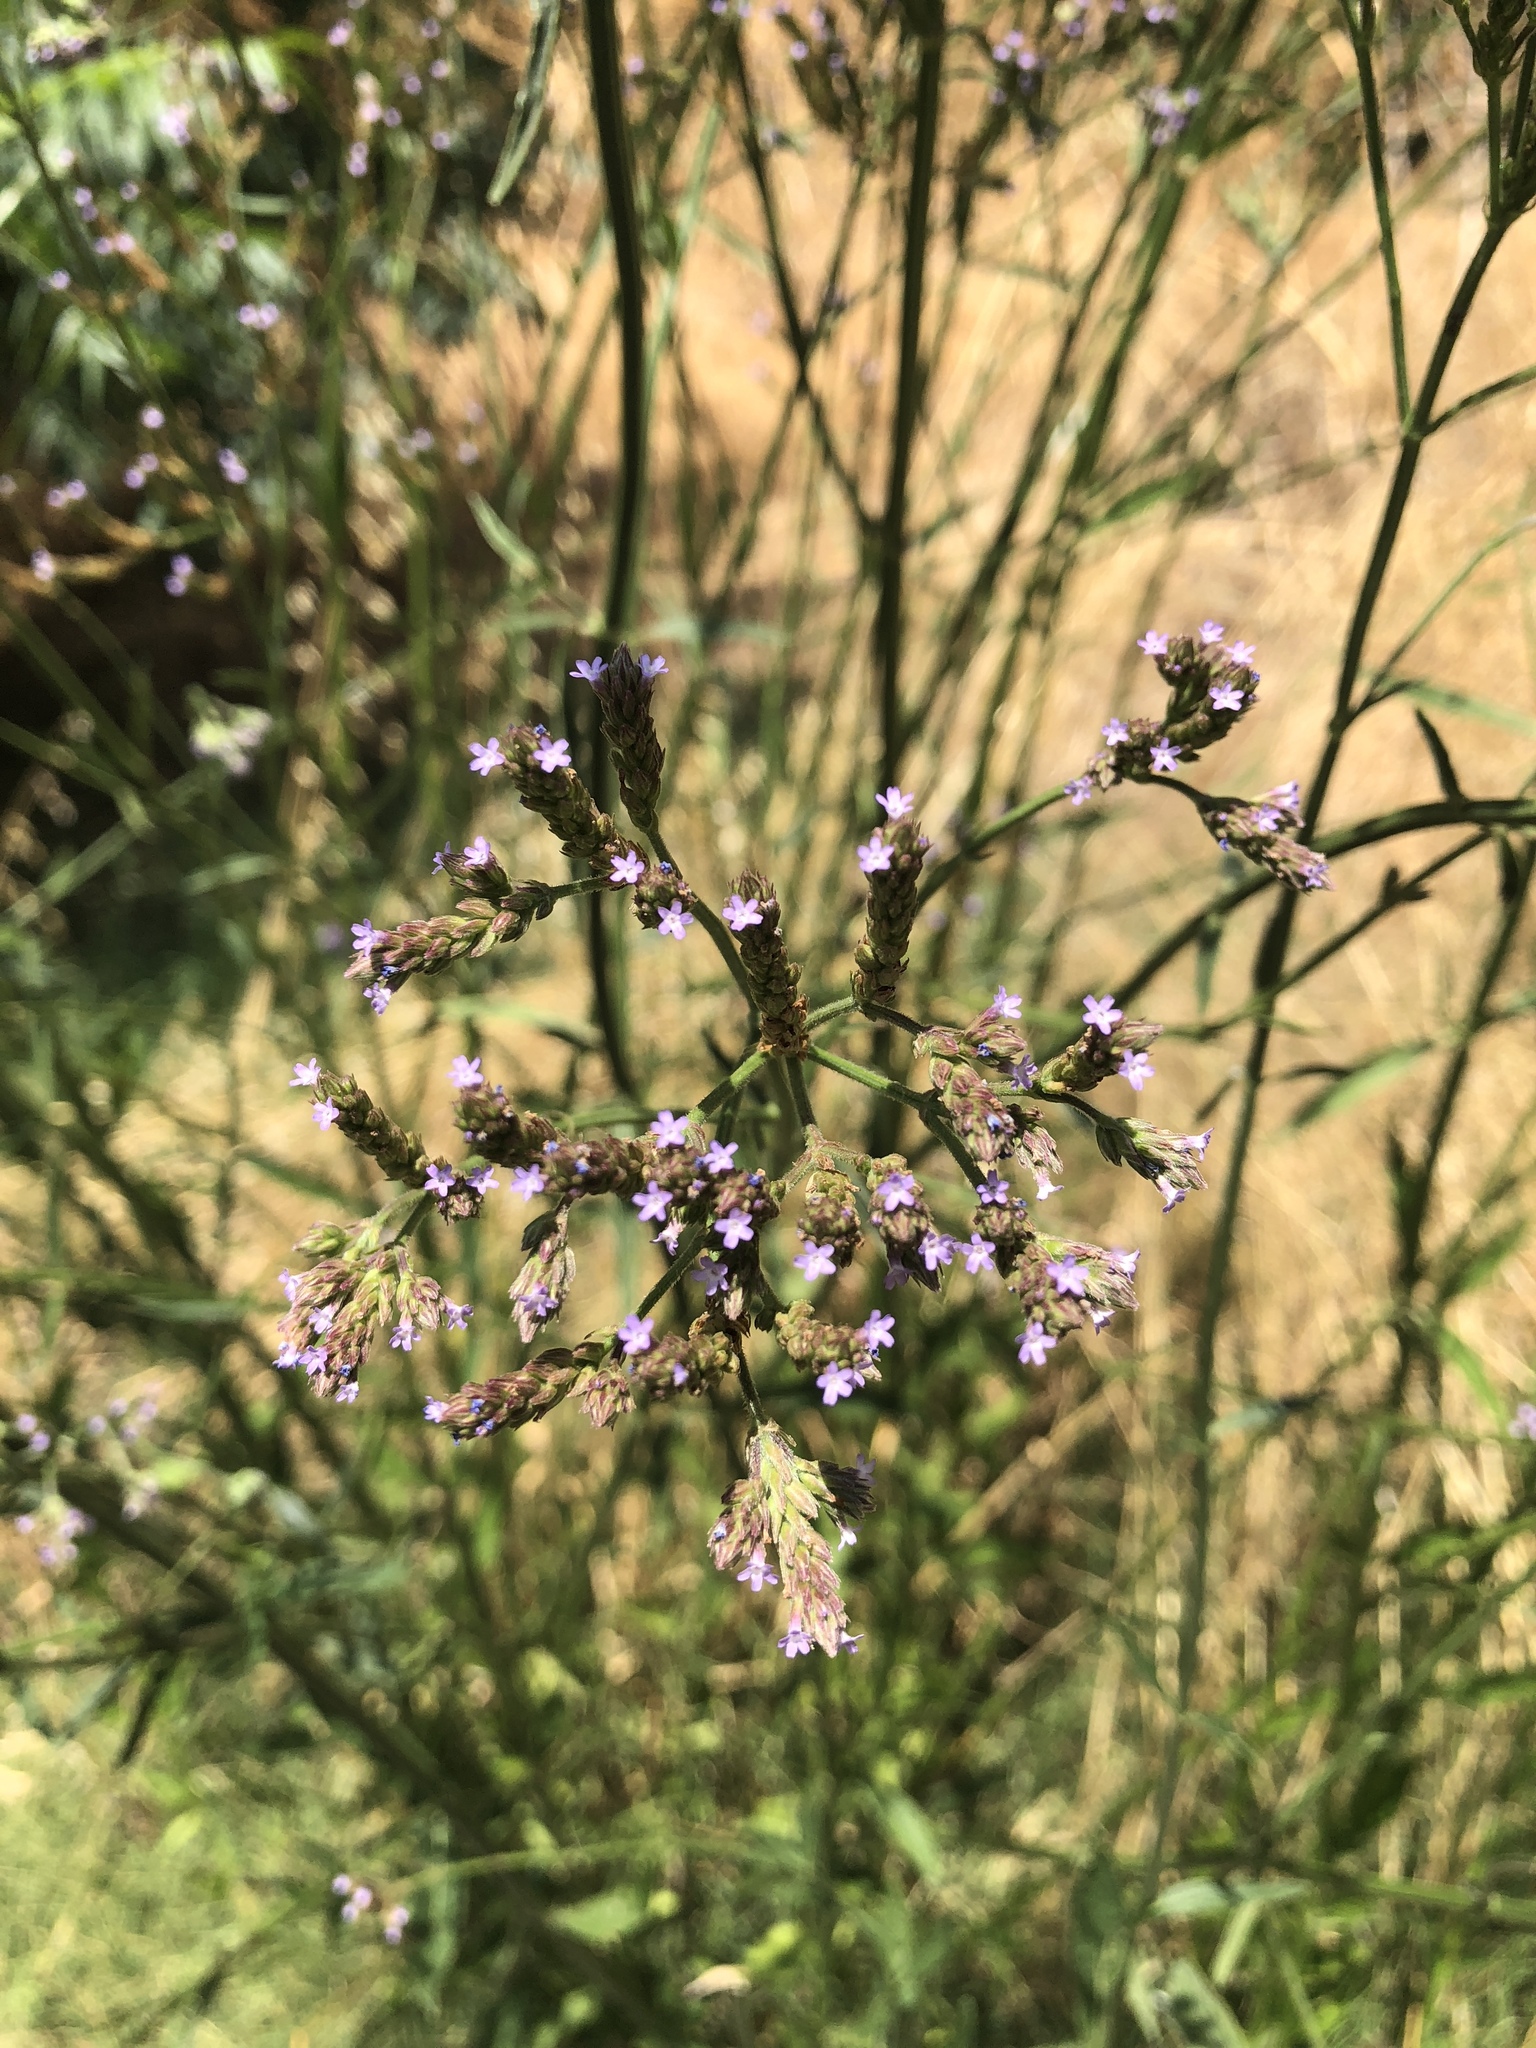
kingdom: Plantae
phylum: Tracheophyta
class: Magnoliopsida
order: Lamiales
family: Verbenaceae
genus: Verbena
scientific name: Verbena brasiliensis
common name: Brazilian vervain
